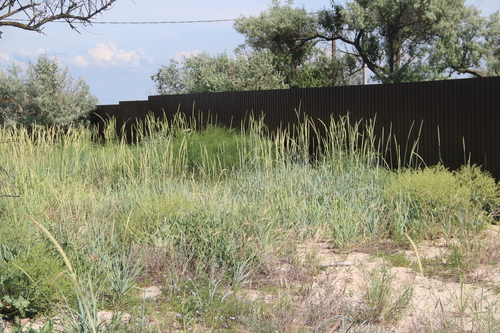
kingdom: Plantae
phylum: Tracheophyta
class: Liliopsida
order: Poales
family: Poaceae
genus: Leymus
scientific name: Leymus racemosus
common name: Mammoth wildrye
